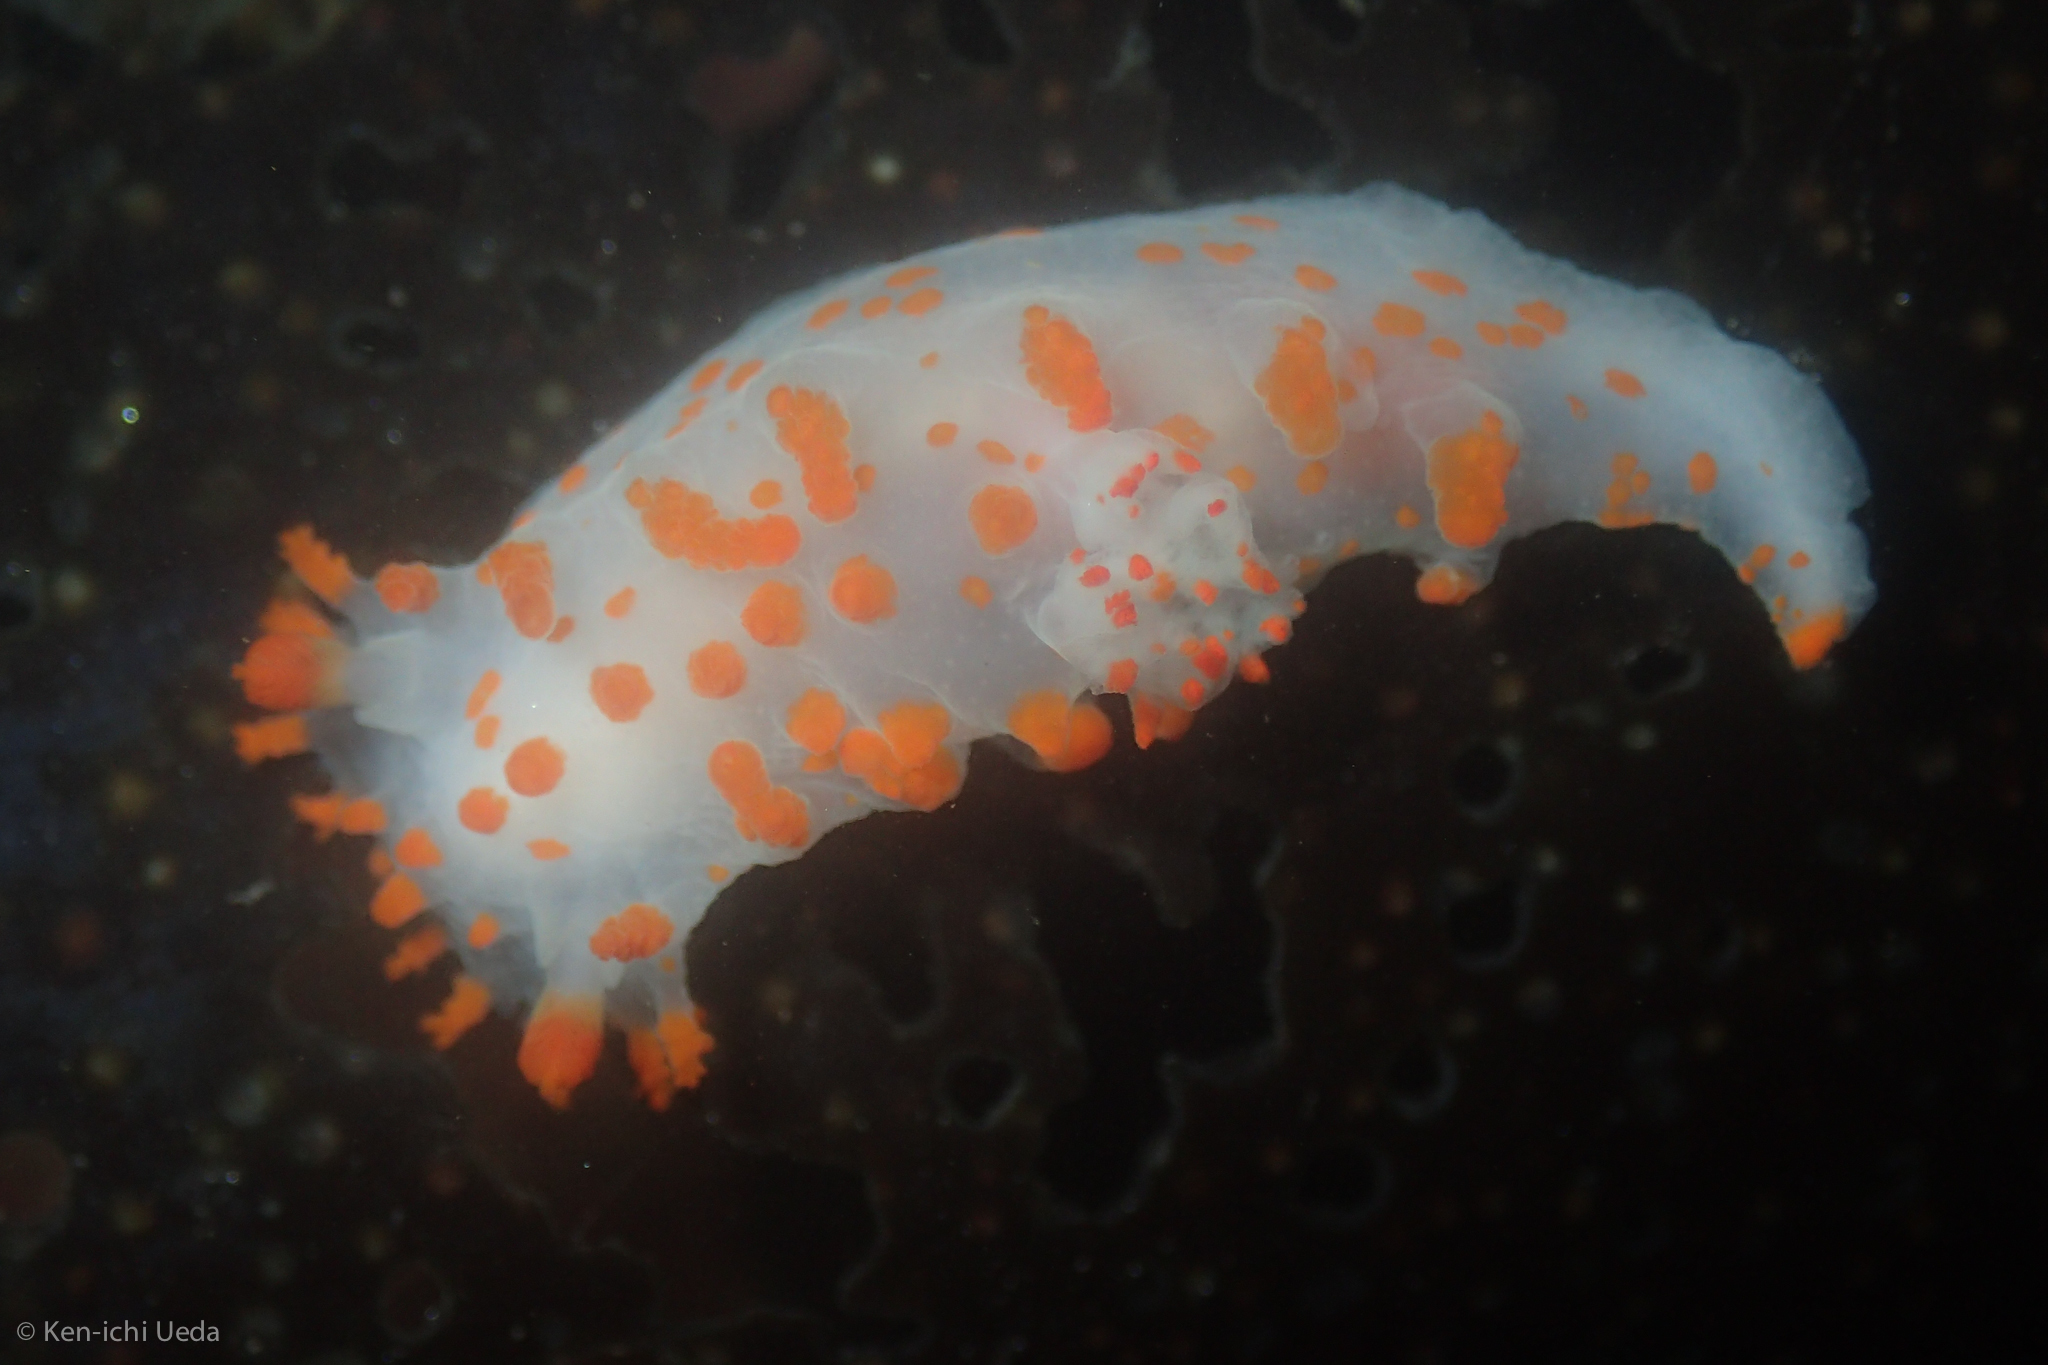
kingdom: Animalia
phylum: Mollusca
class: Gastropoda
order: Nudibranchia
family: Polyceridae
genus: Triopha
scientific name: Triopha catalinae
